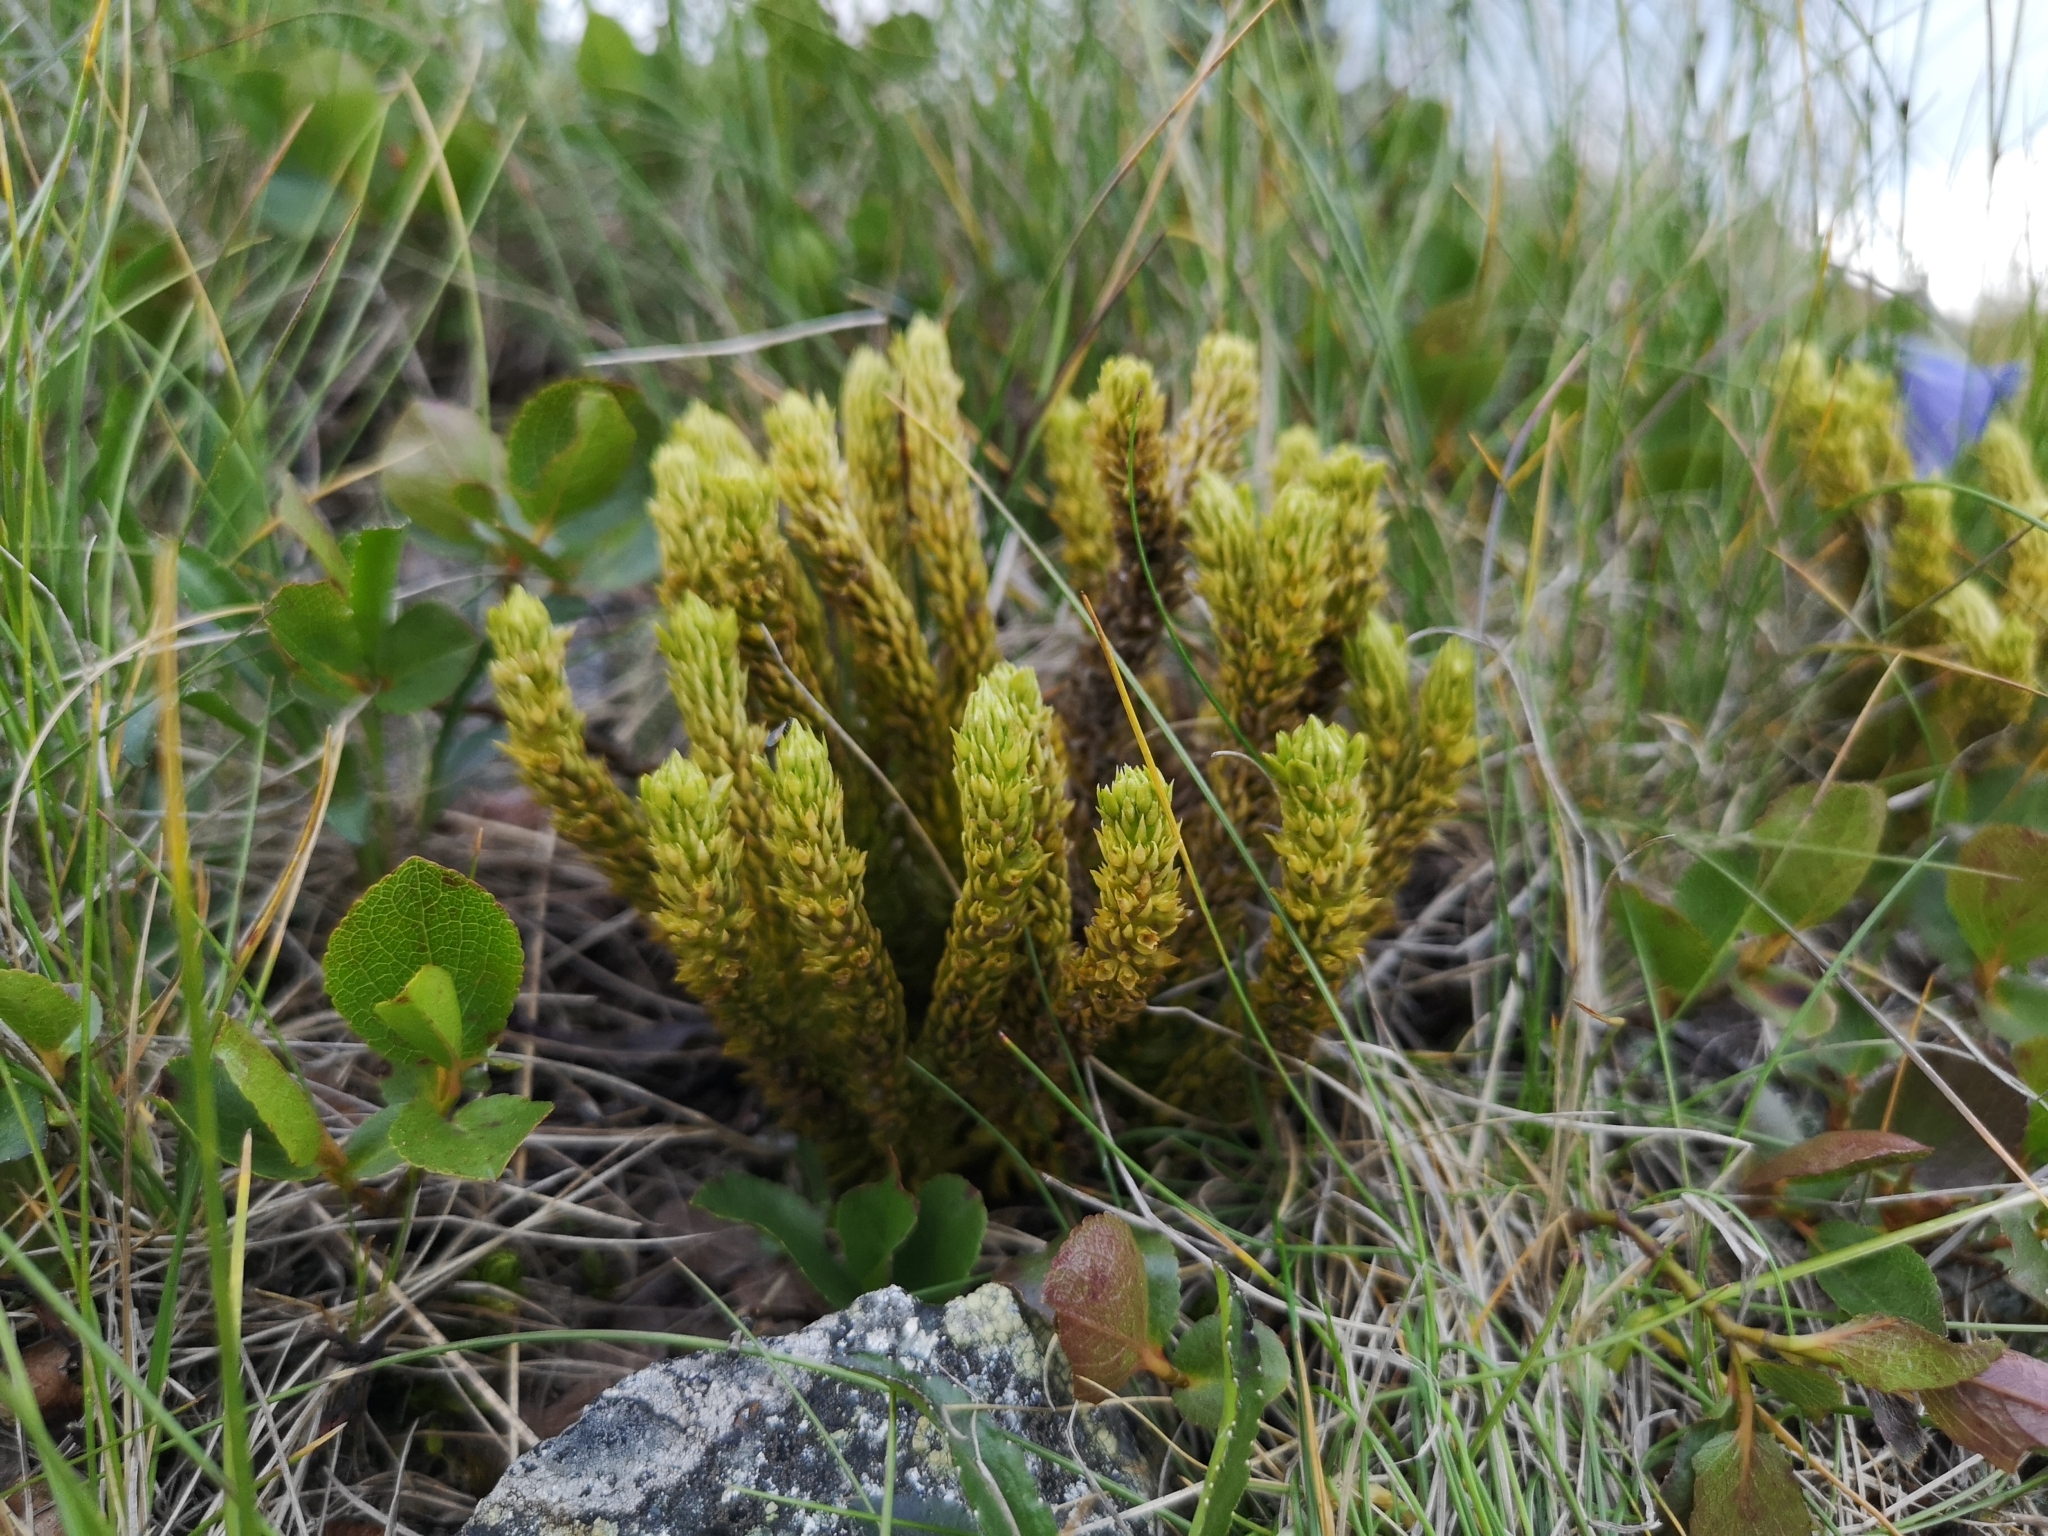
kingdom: Plantae
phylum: Tracheophyta
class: Lycopodiopsida
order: Lycopodiales
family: Lycopodiaceae
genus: Huperzia
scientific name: Huperzia selago
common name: Northern firmoss
